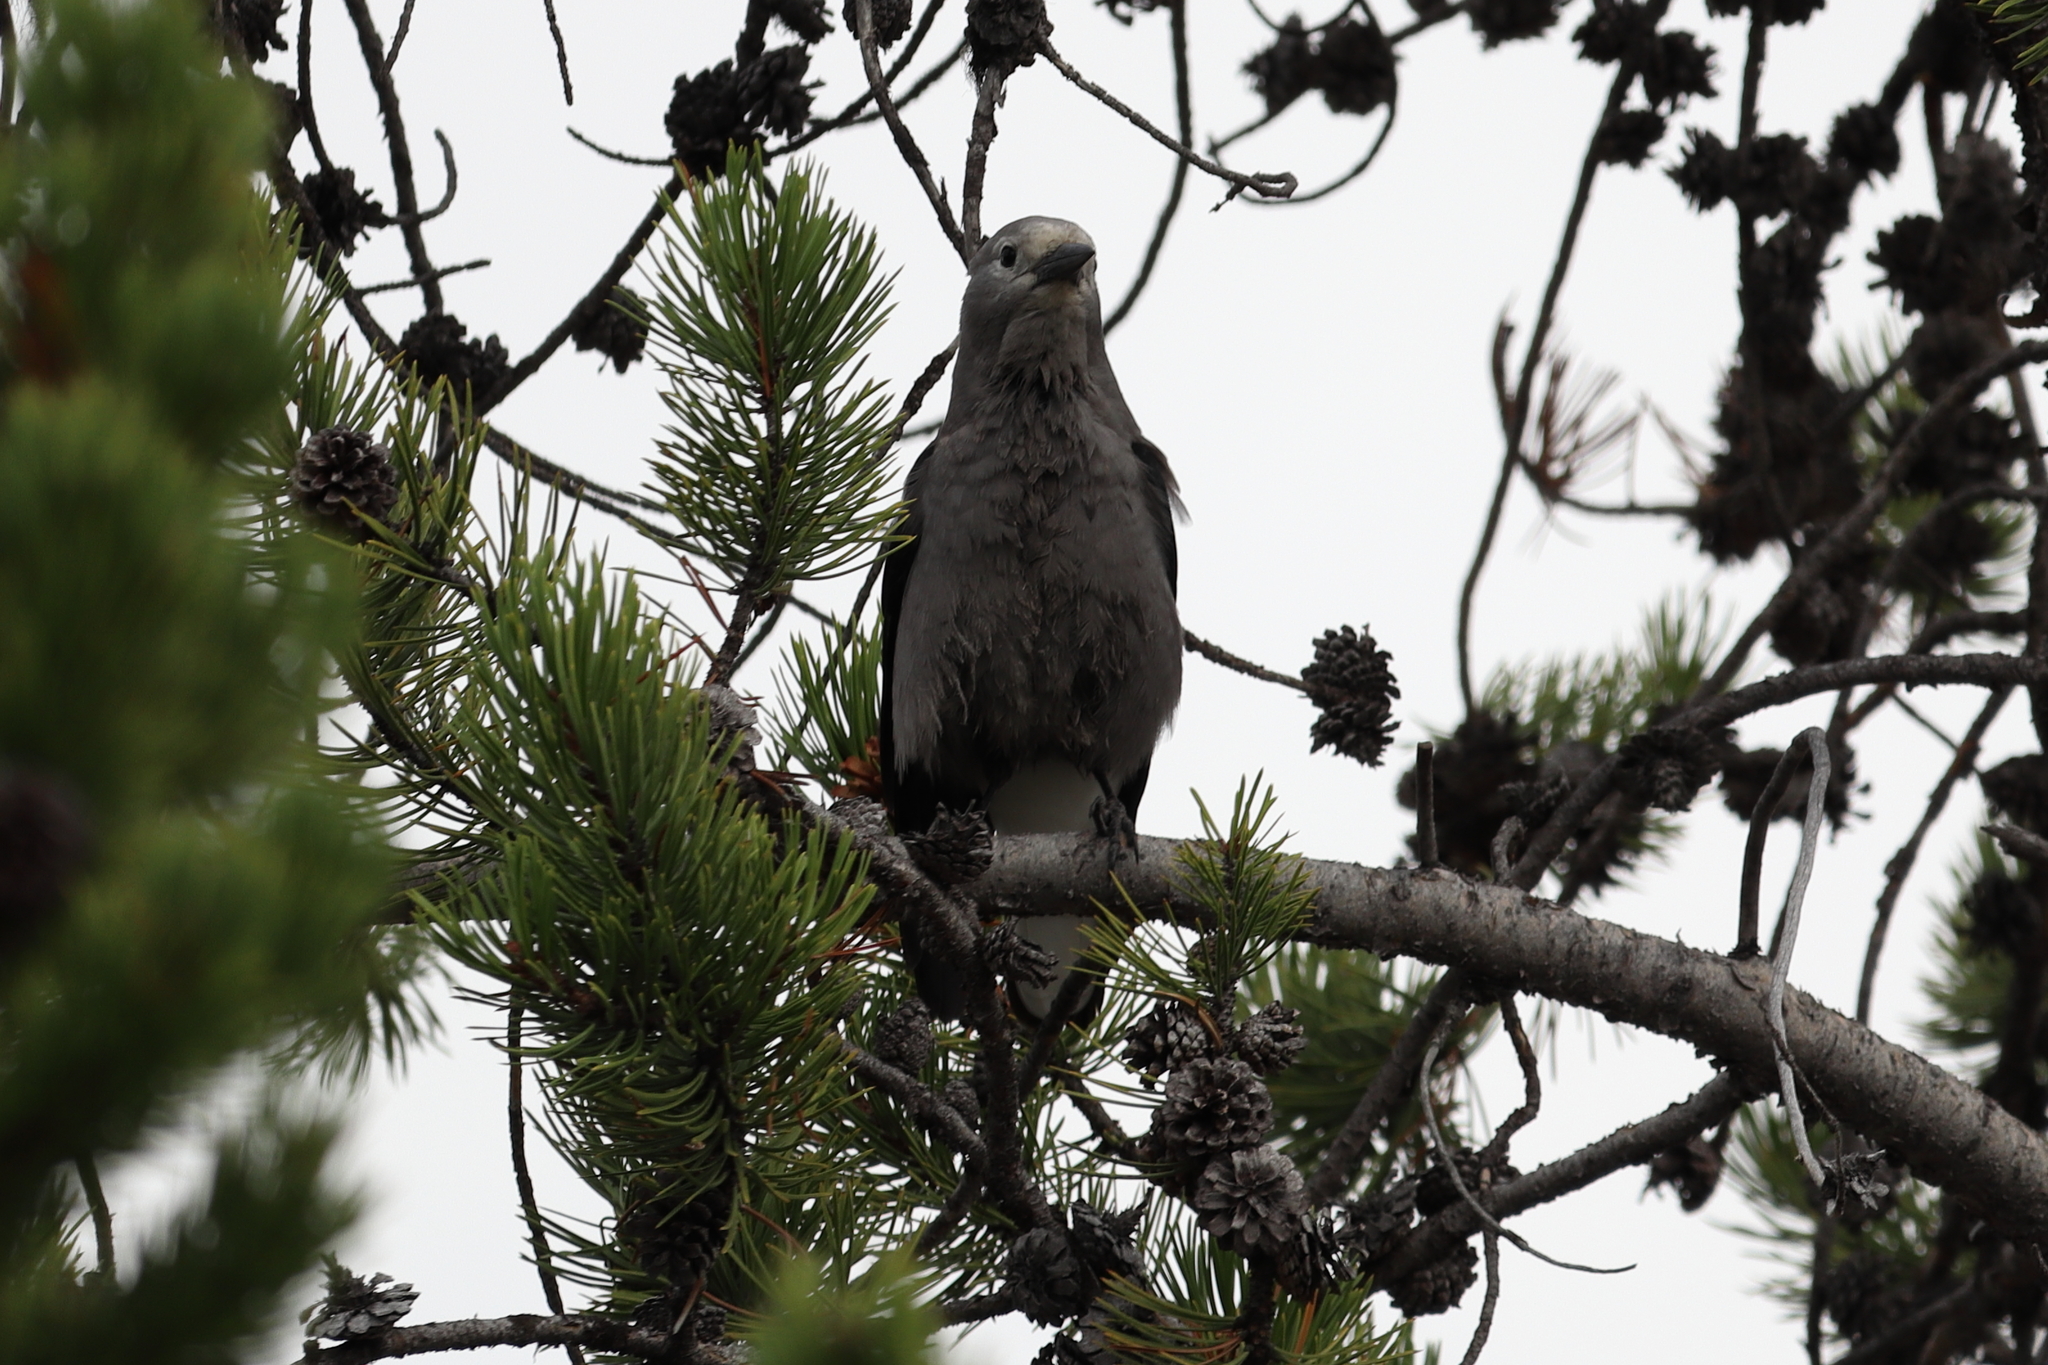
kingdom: Animalia
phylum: Chordata
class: Aves
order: Passeriformes
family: Corvidae
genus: Nucifraga
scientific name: Nucifraga columbiana
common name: Clark's nutcracker
